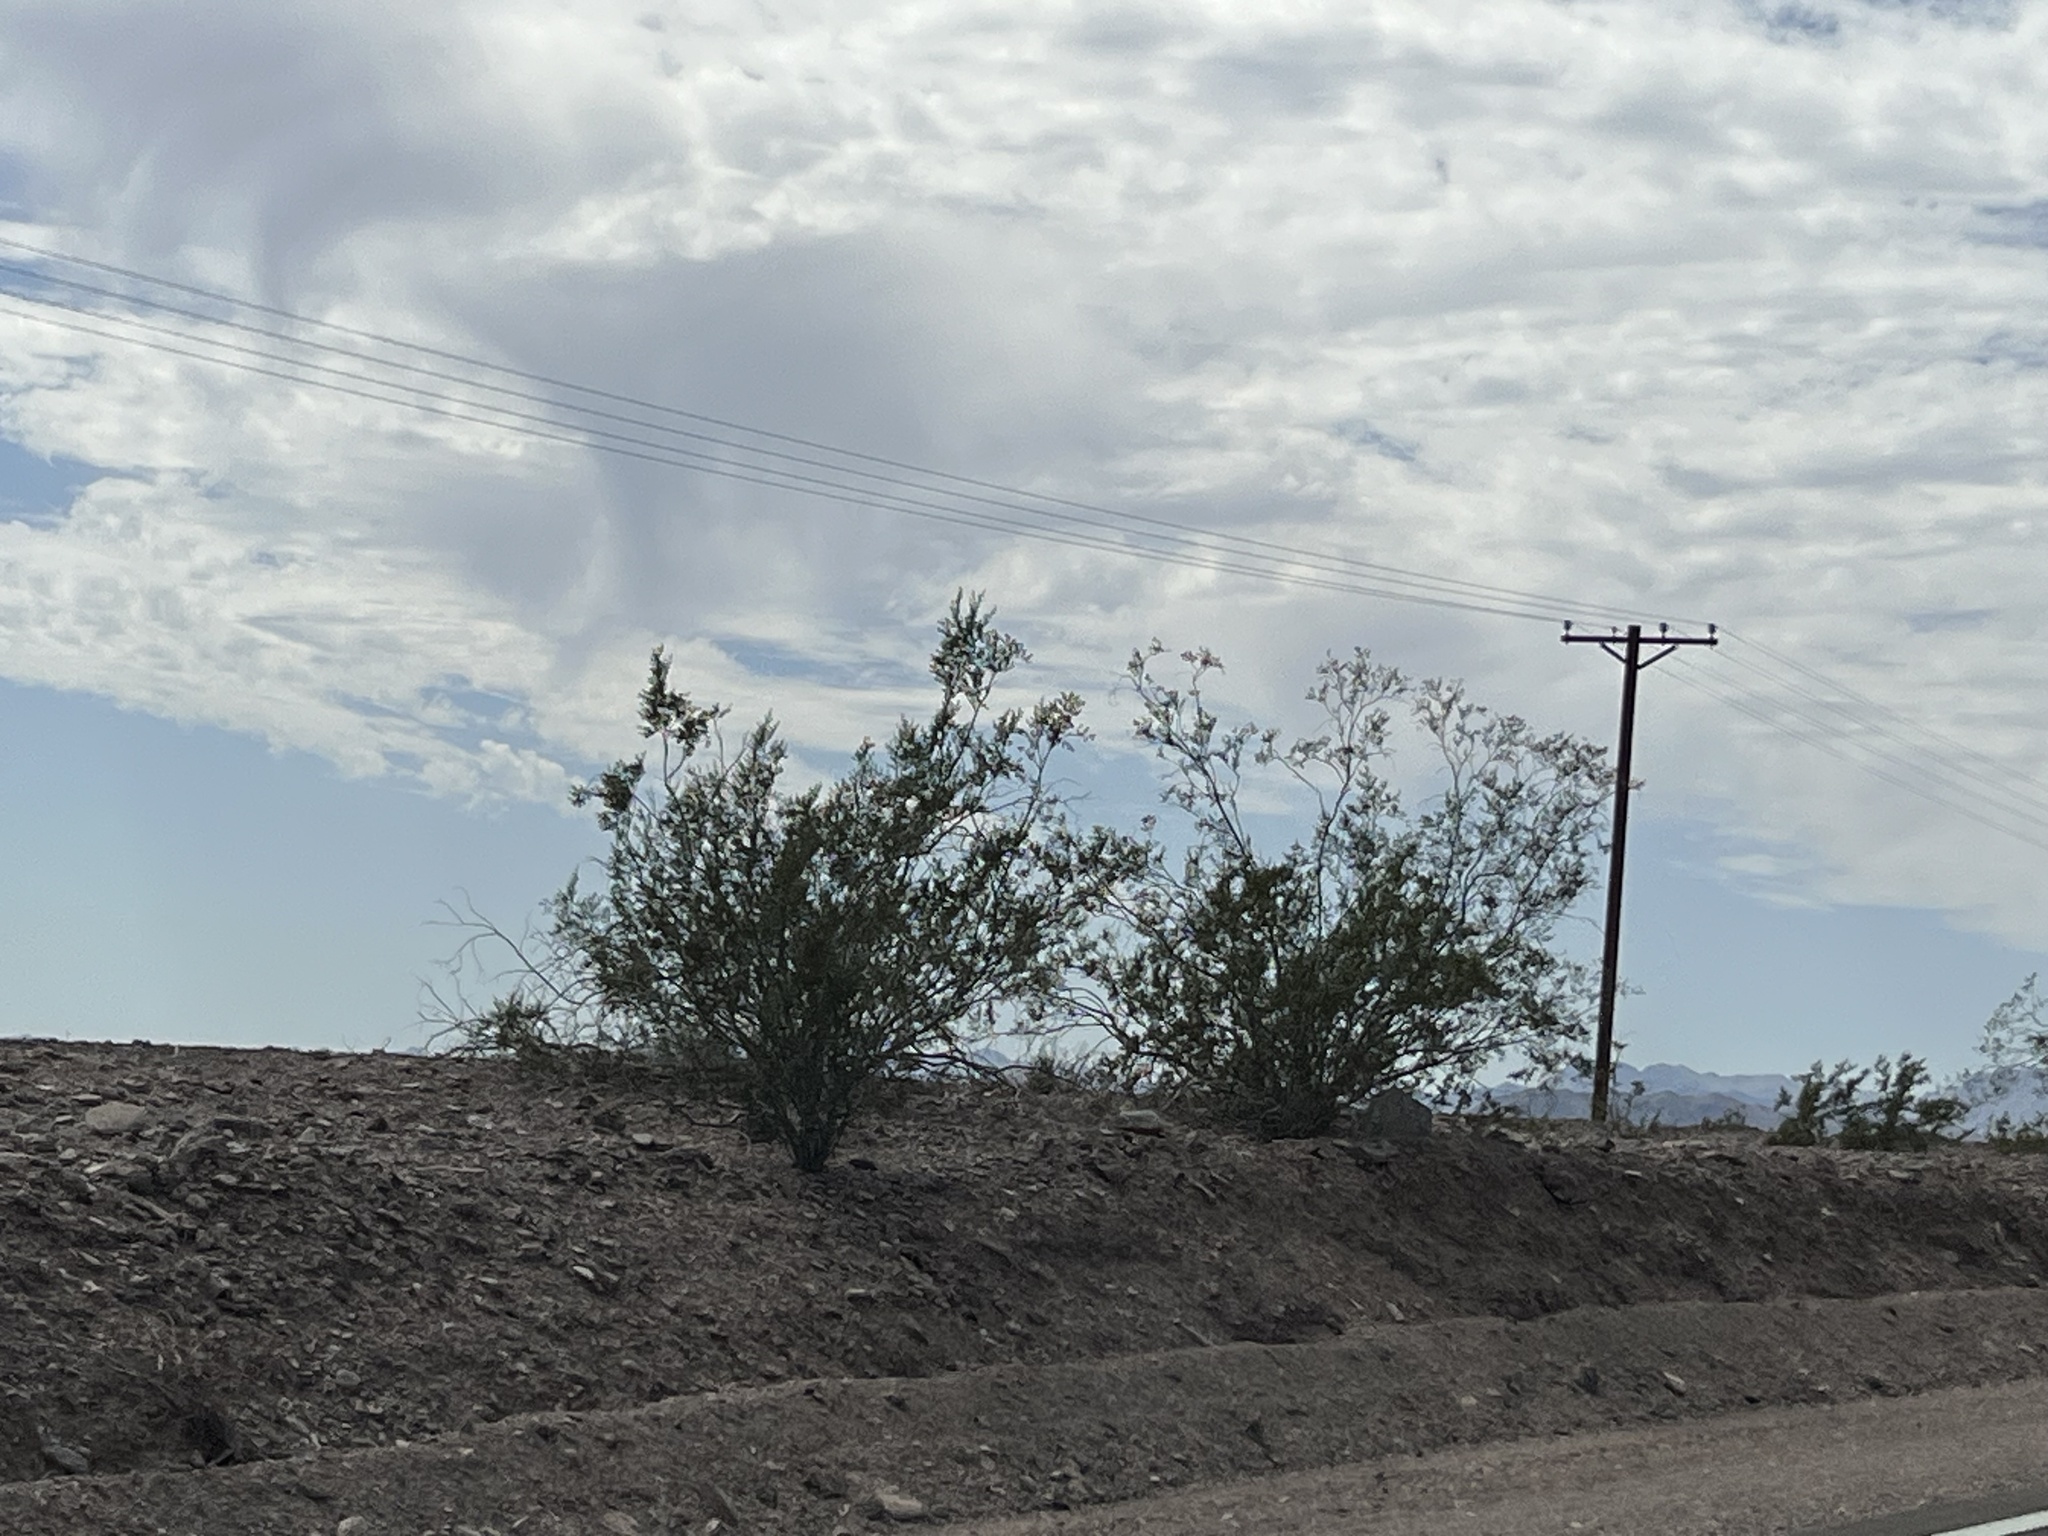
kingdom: Plantae
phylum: Tracheophyta
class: Magnoliopsida
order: Zygophyllales
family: Zygophyllaceae
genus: Larrea
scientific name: Larrea tridentata
